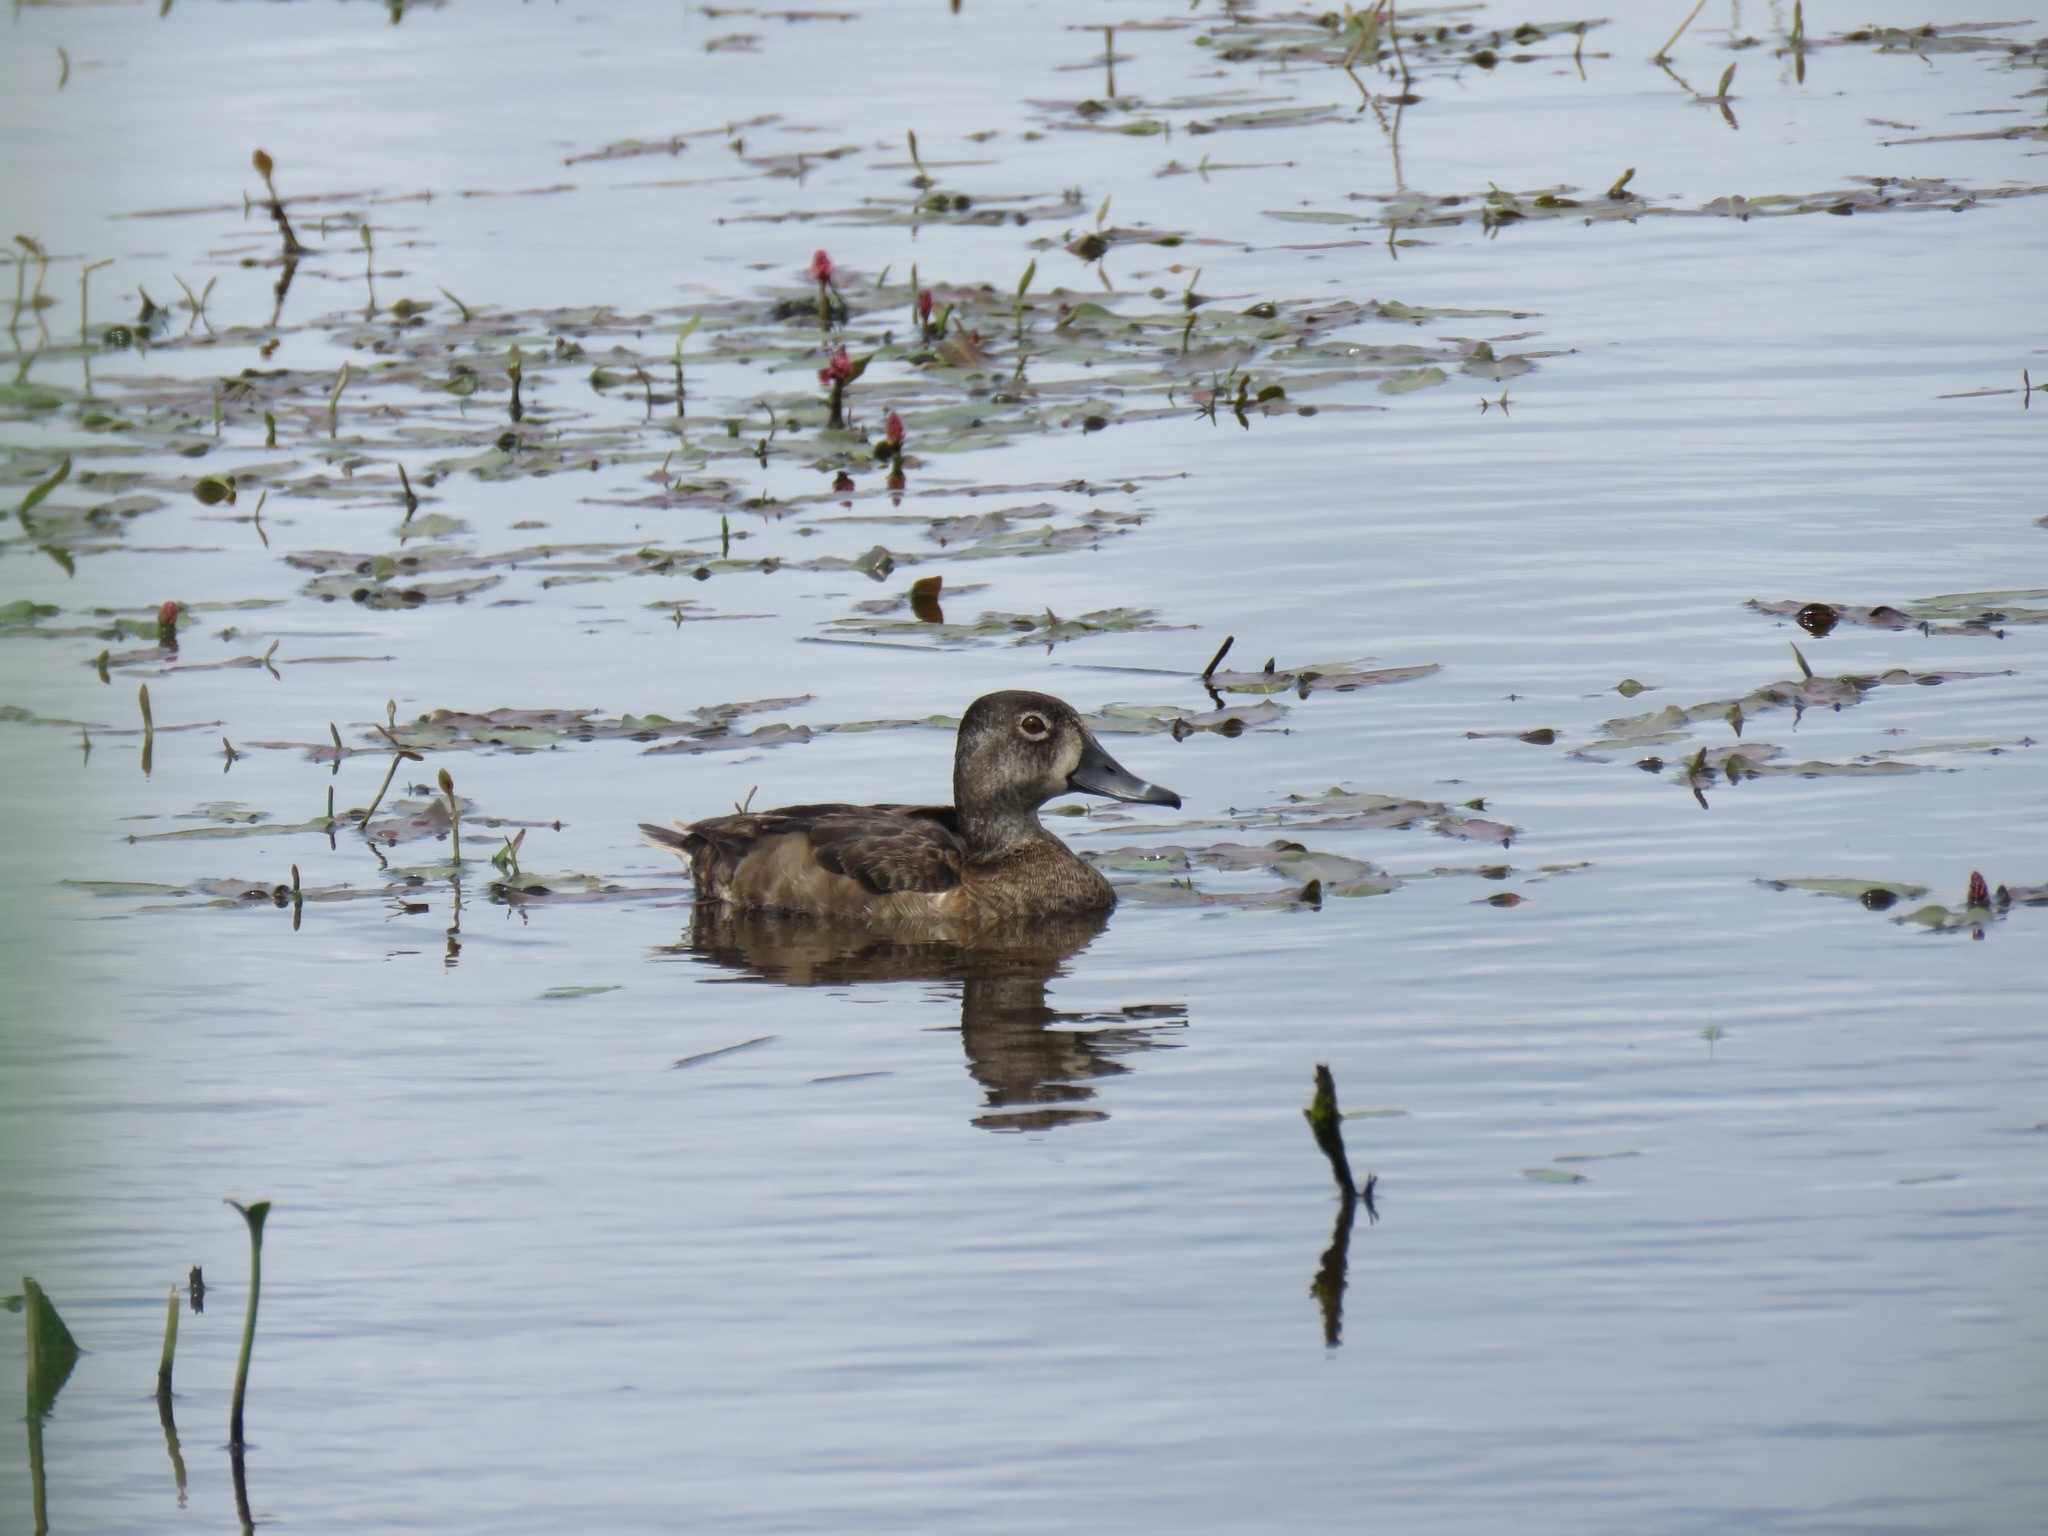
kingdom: Animalia
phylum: Chordata
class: Aves
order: Anseriformes
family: Anatidae
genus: Aythya
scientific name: Aythya collaris
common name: Ring-necked duck
